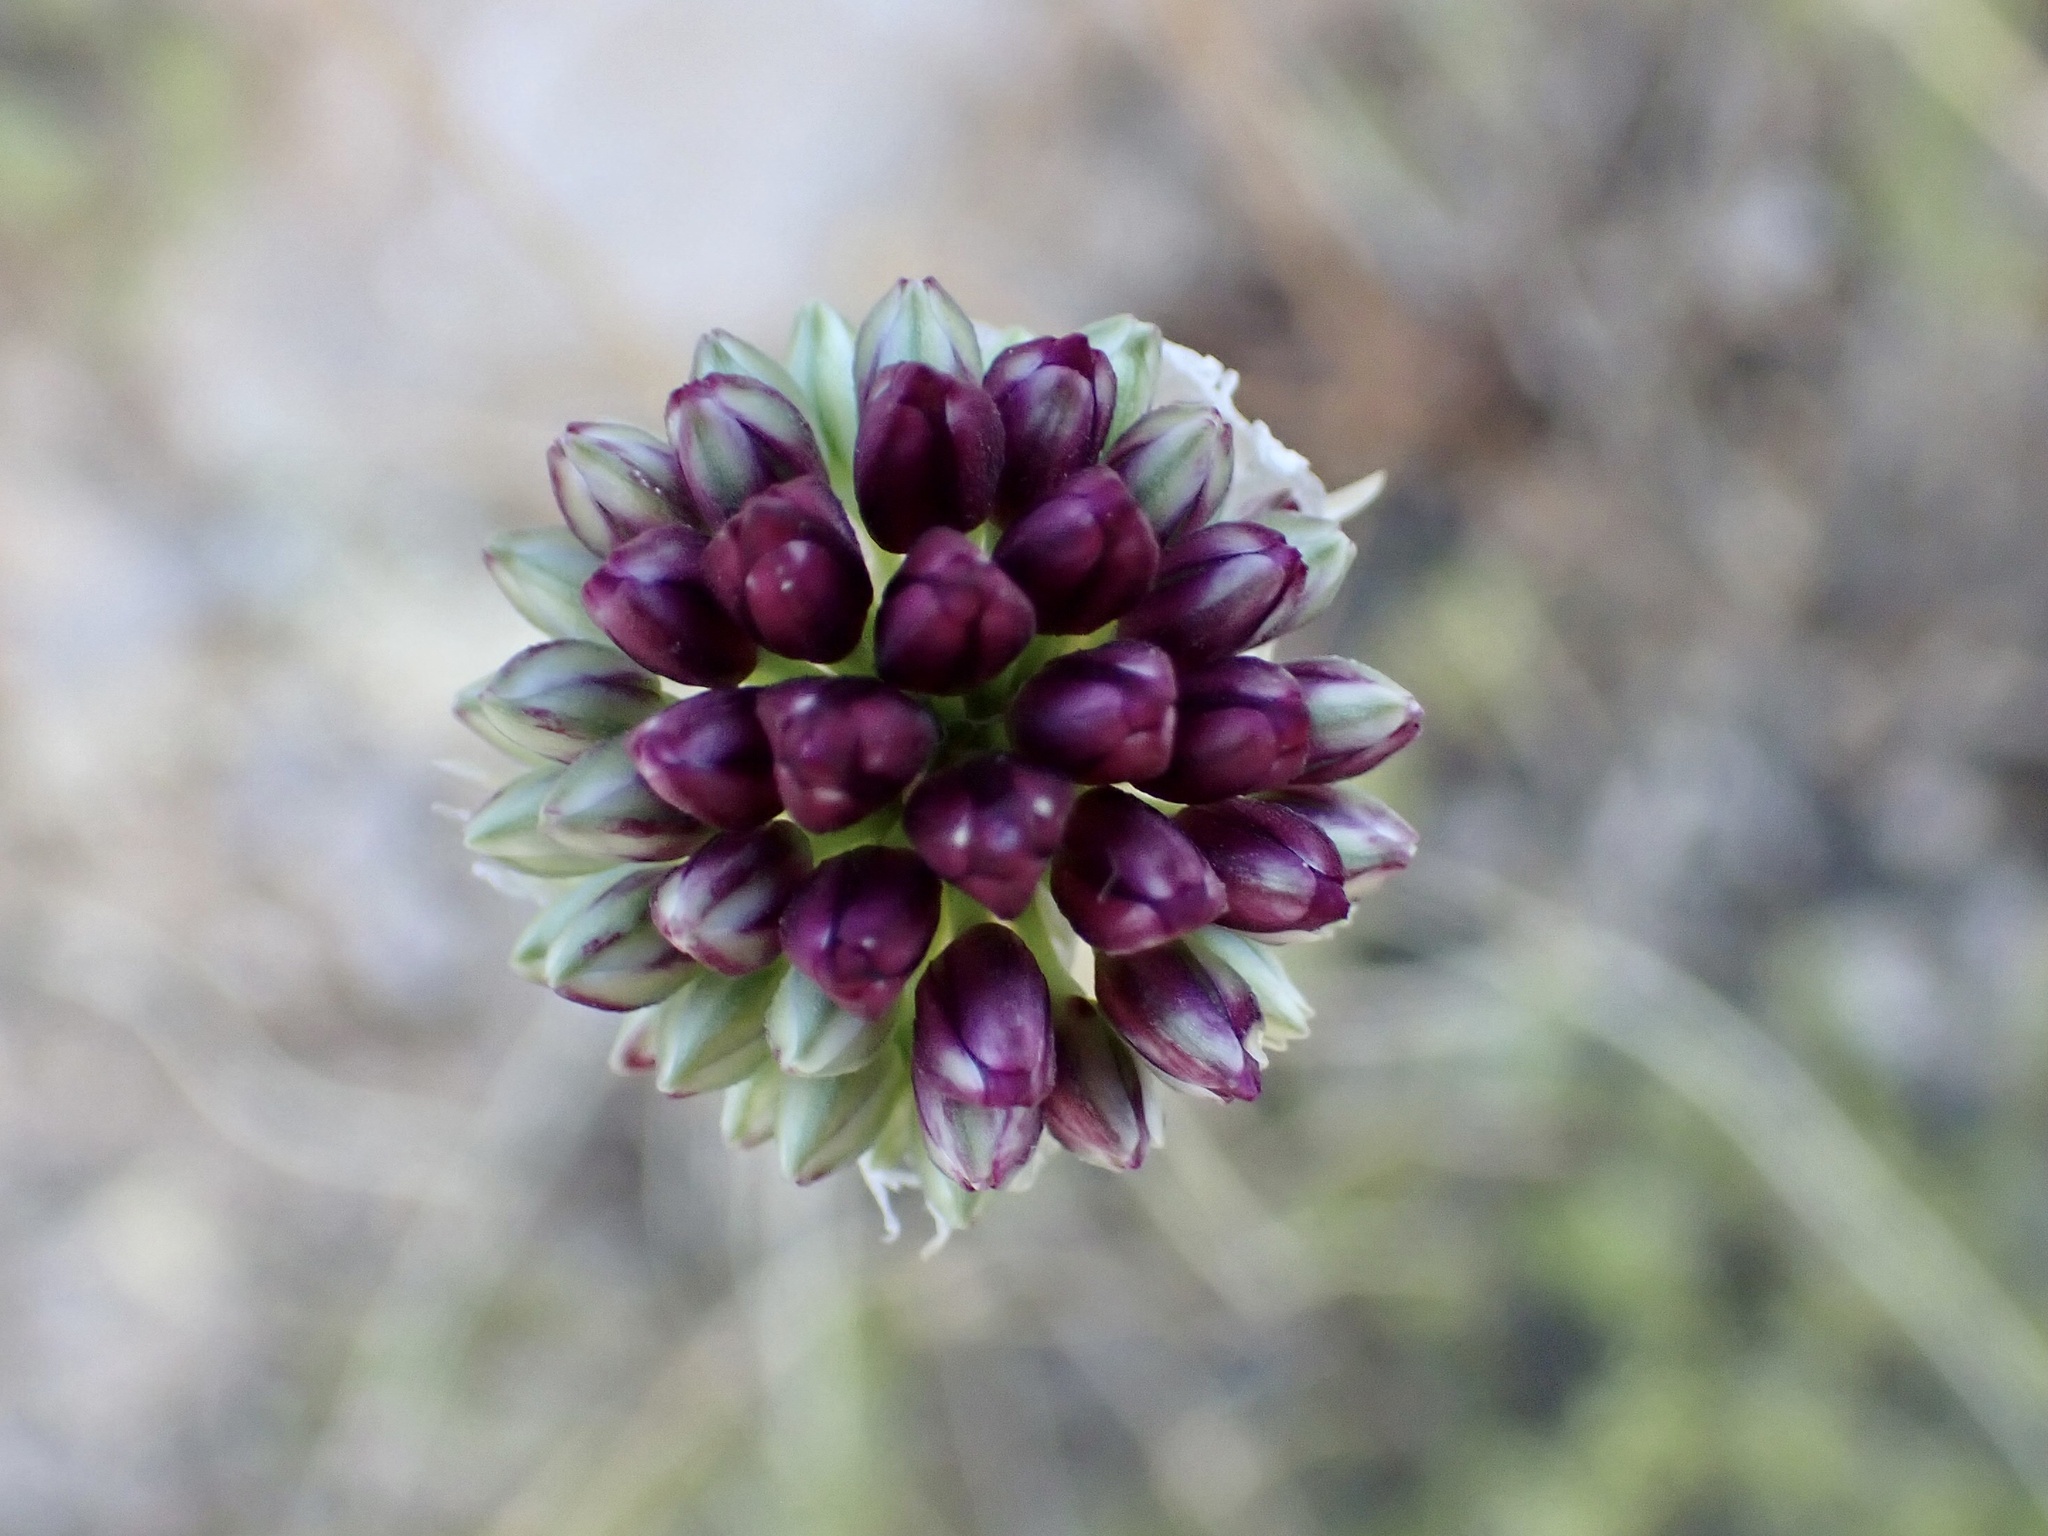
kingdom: Plantae
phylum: Tracheophyta
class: Liliopsida
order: Asparagales
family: Amaryllidaceae
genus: Allium
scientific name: Allium sphaerocephalon
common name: Round-headed leek
